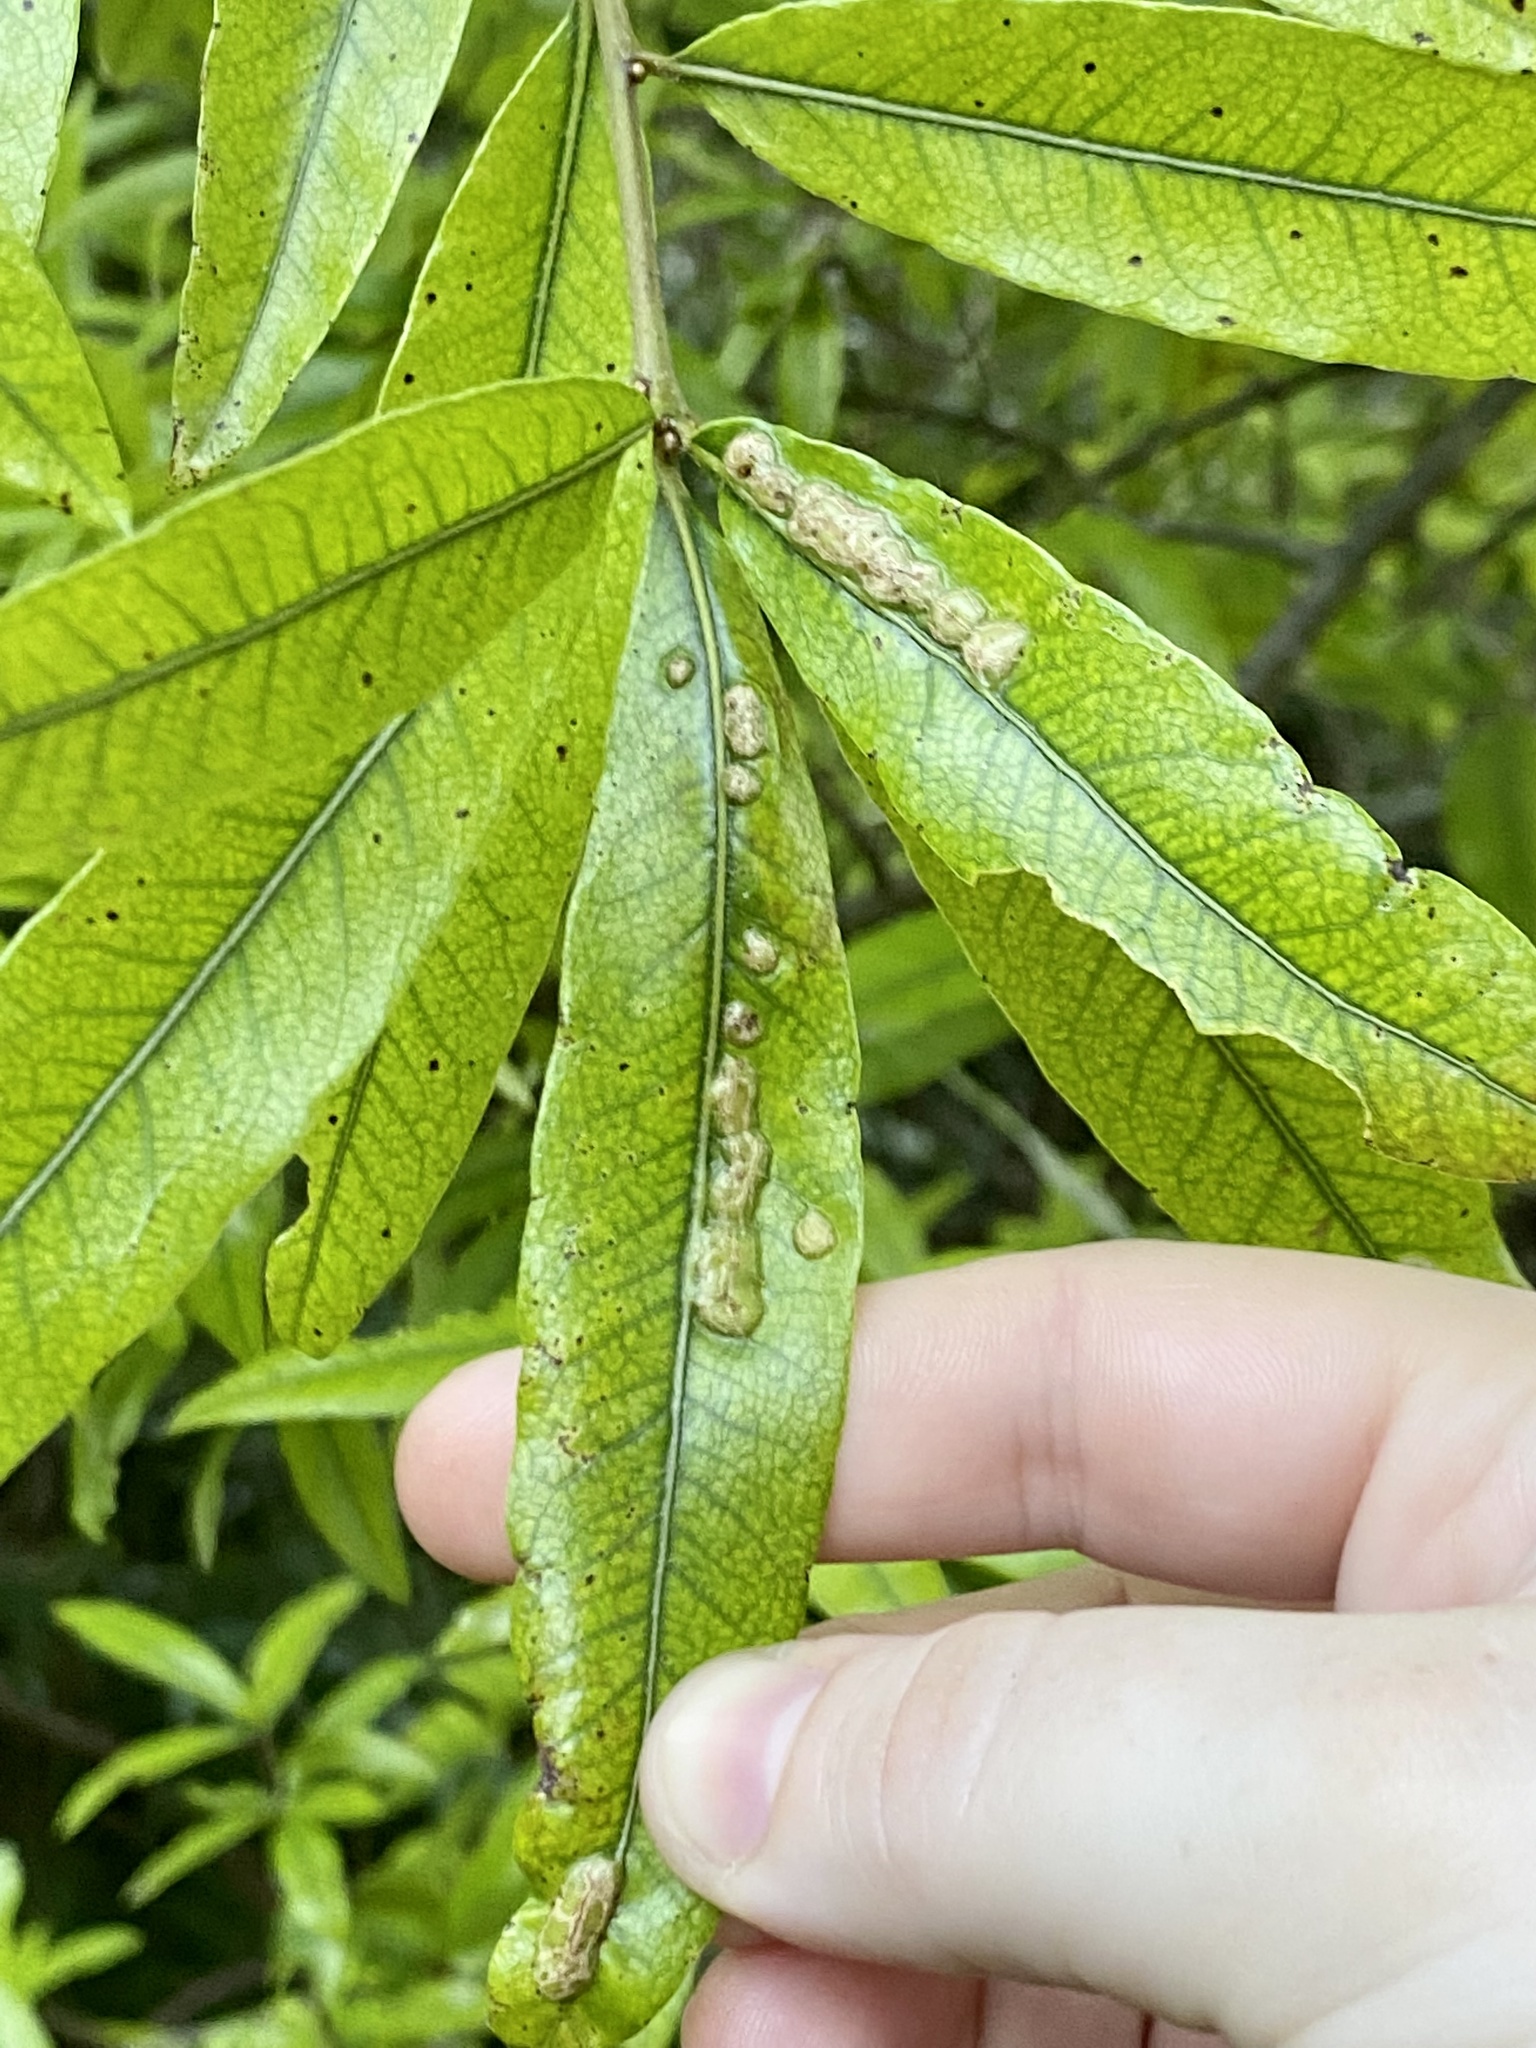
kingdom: Animalia
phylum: Arthropoda
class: Insecta
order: Diptera
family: Cecidomyiidae
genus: Polystepha
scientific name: Polystepha pilulae
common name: Oak leaf gall midge
